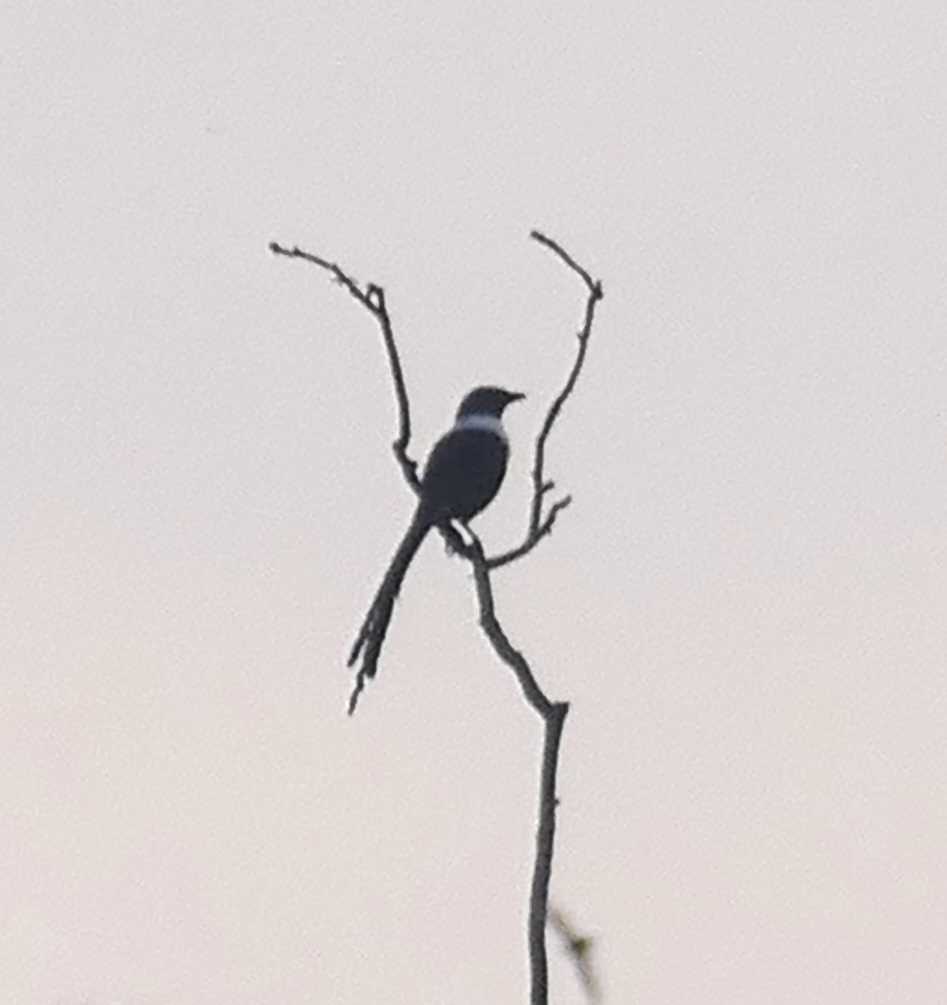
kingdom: Animalia
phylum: Chordata
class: Aves
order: Passeriformes
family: Sturnidae
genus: Streptocitta
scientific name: Streptocitta albicollis
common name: White-necked myna
